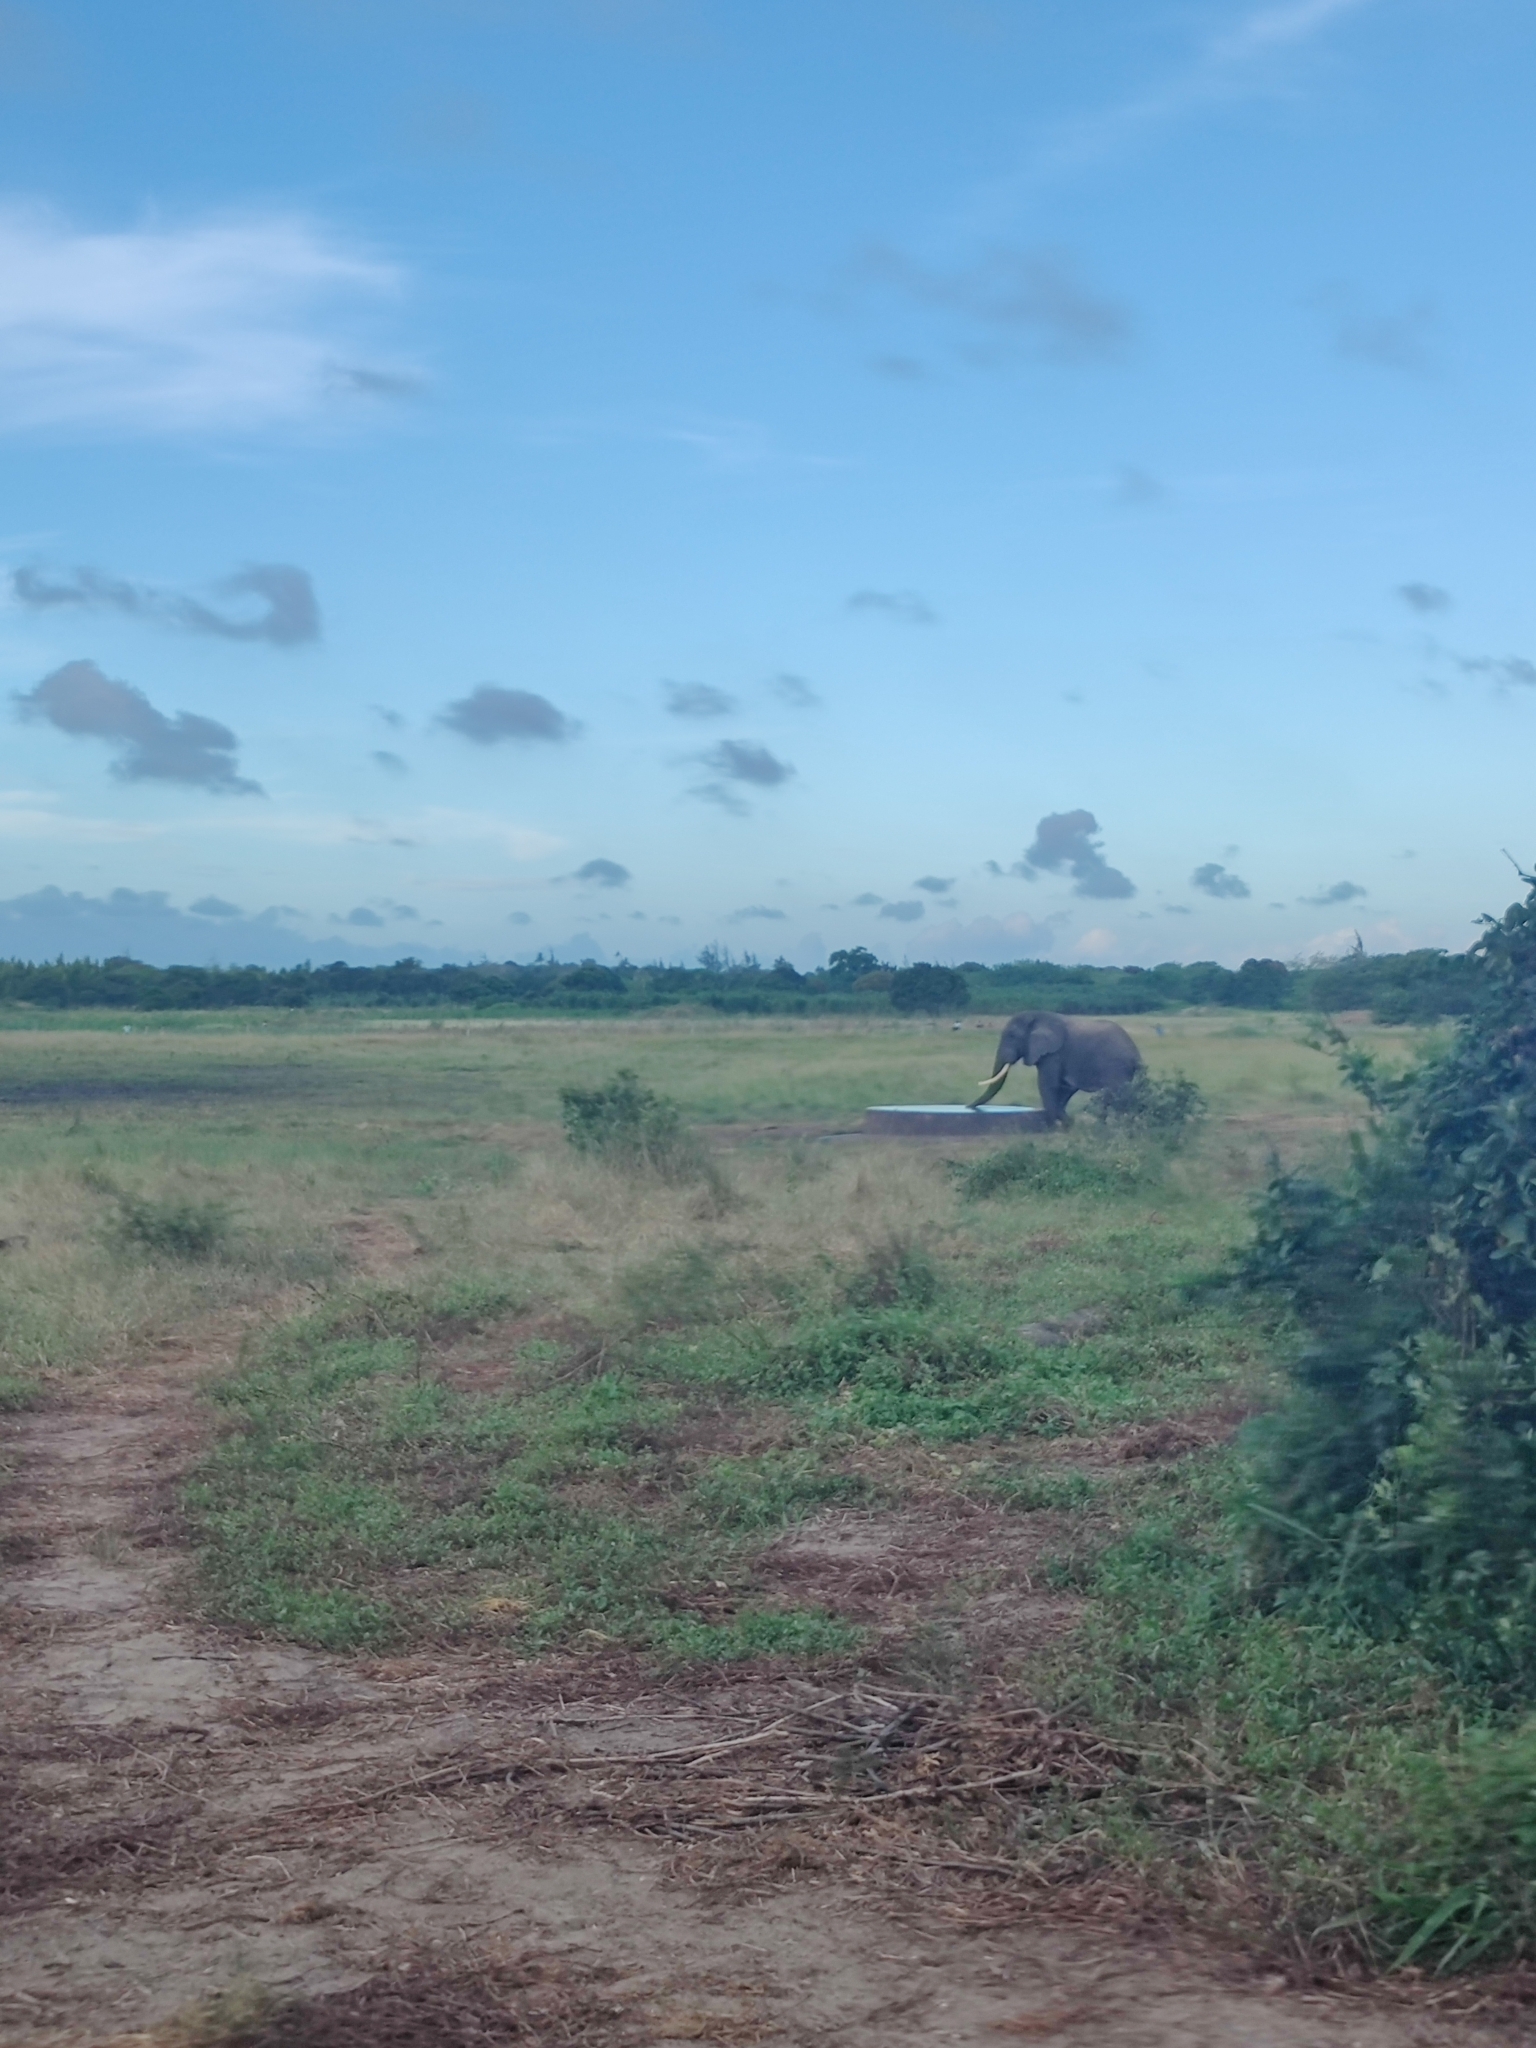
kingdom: Animalia
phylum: Chordata
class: Mammalia
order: Proboscidea
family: Elephantidae
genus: Loxodonta
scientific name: Loxodonta africana
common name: African elephant
